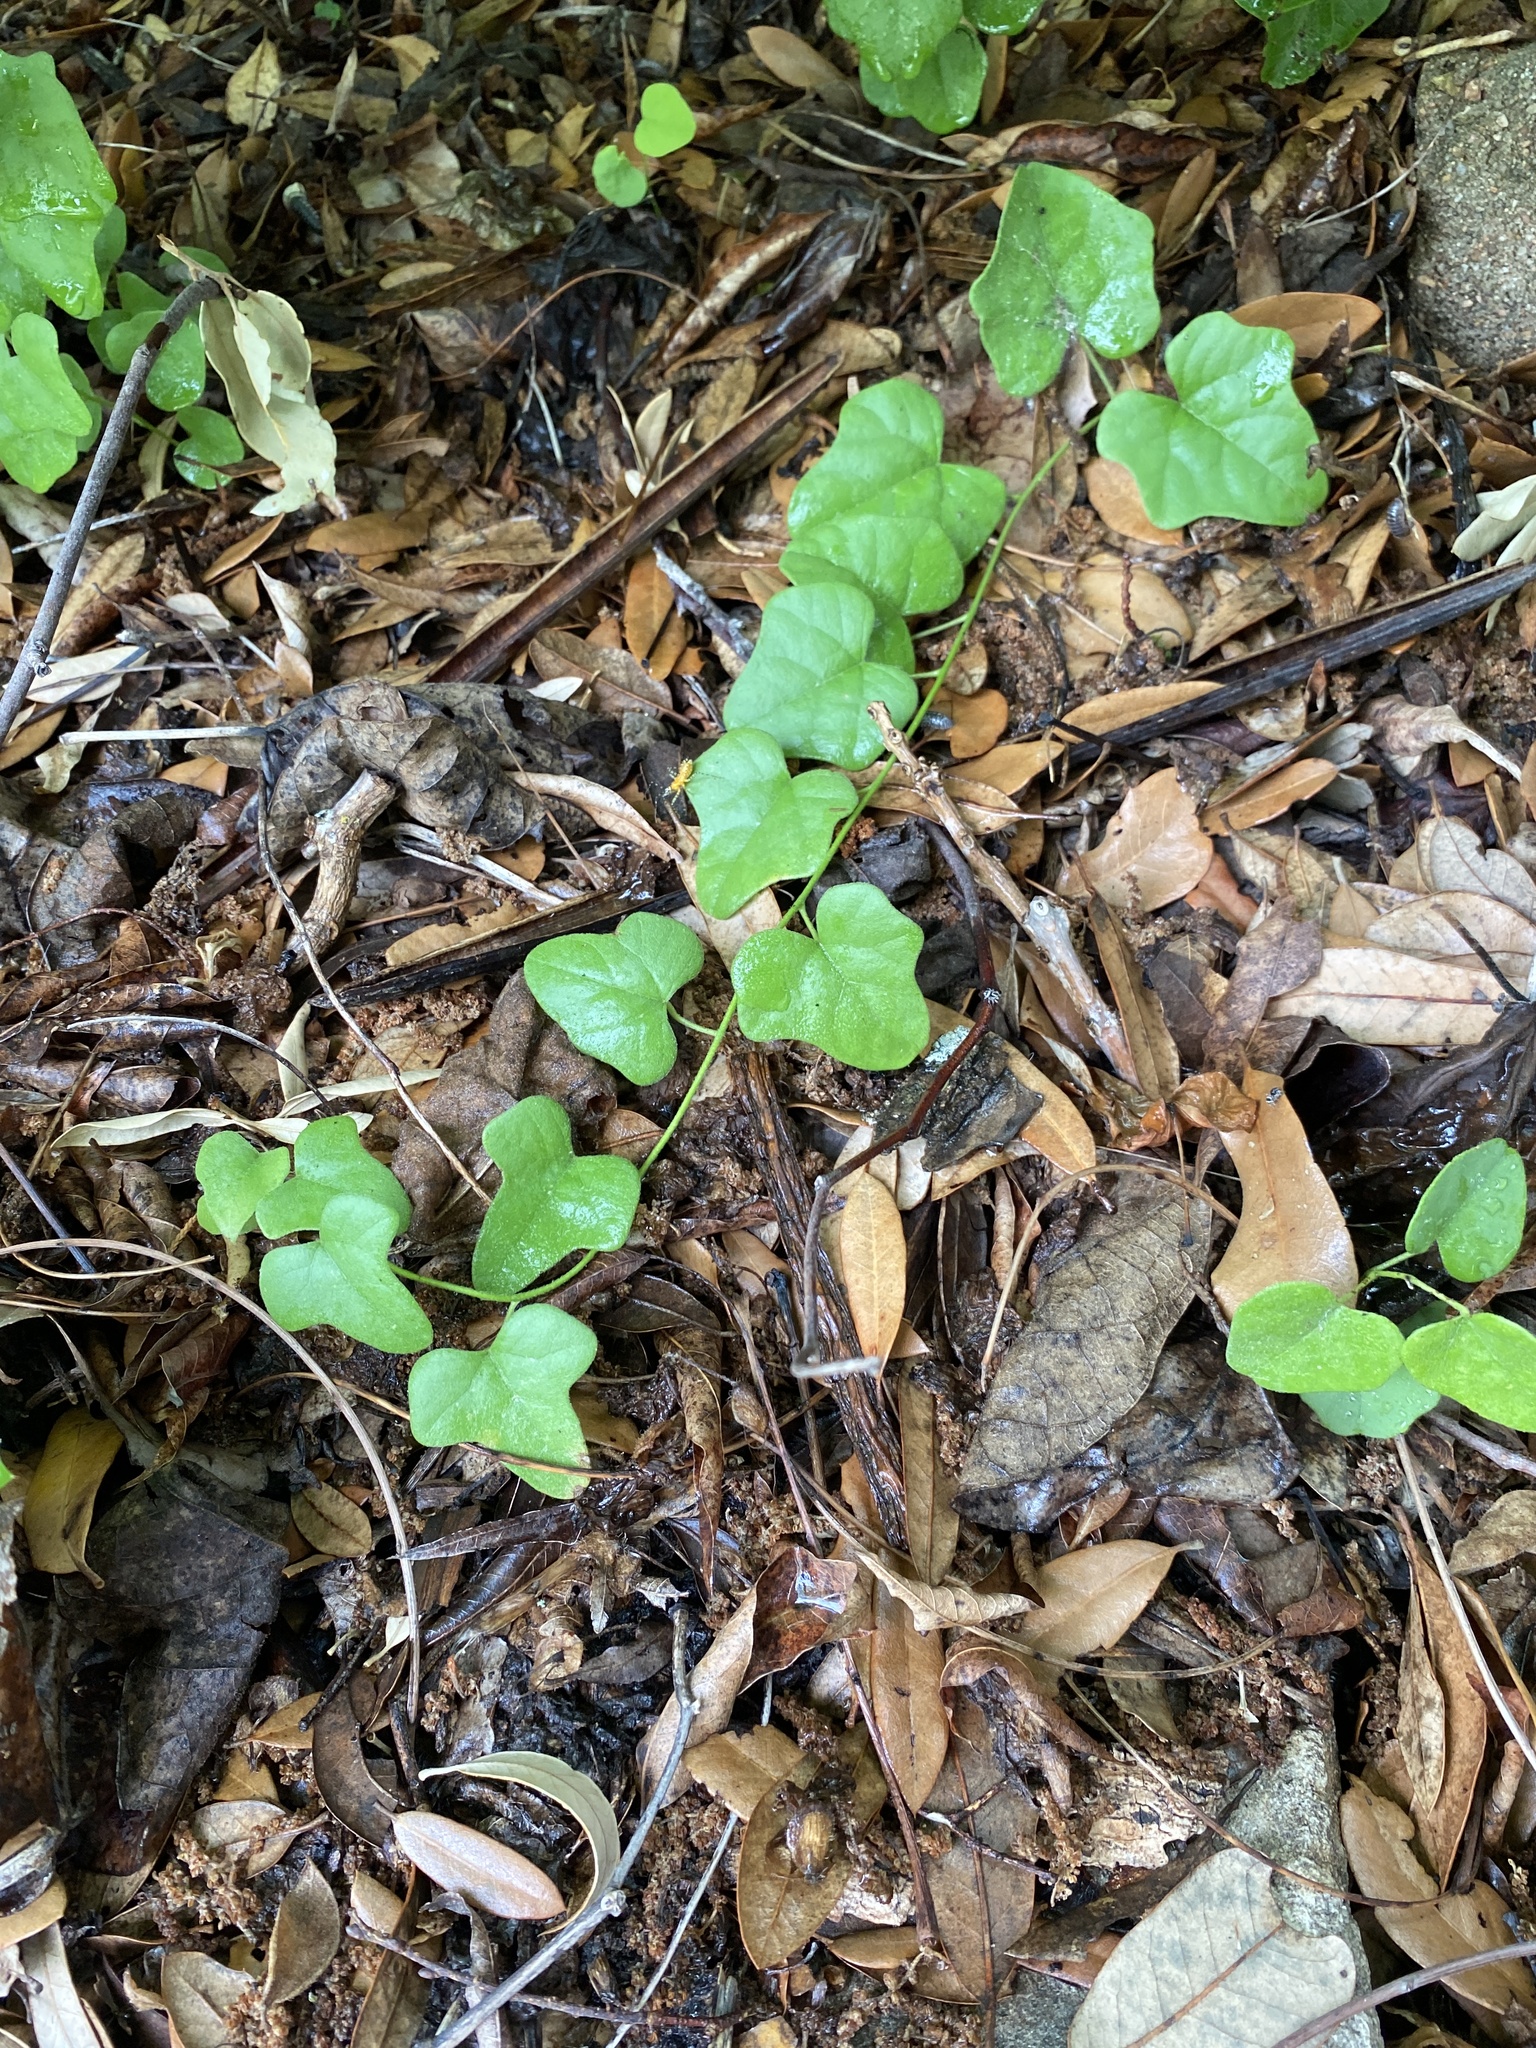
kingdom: Plantae
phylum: Tracheophyta
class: Magnoliopsida
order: Ranunculales
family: Menispermaceae
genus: Cocculus
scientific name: Cocculus carolinus
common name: Carolina moonseed
